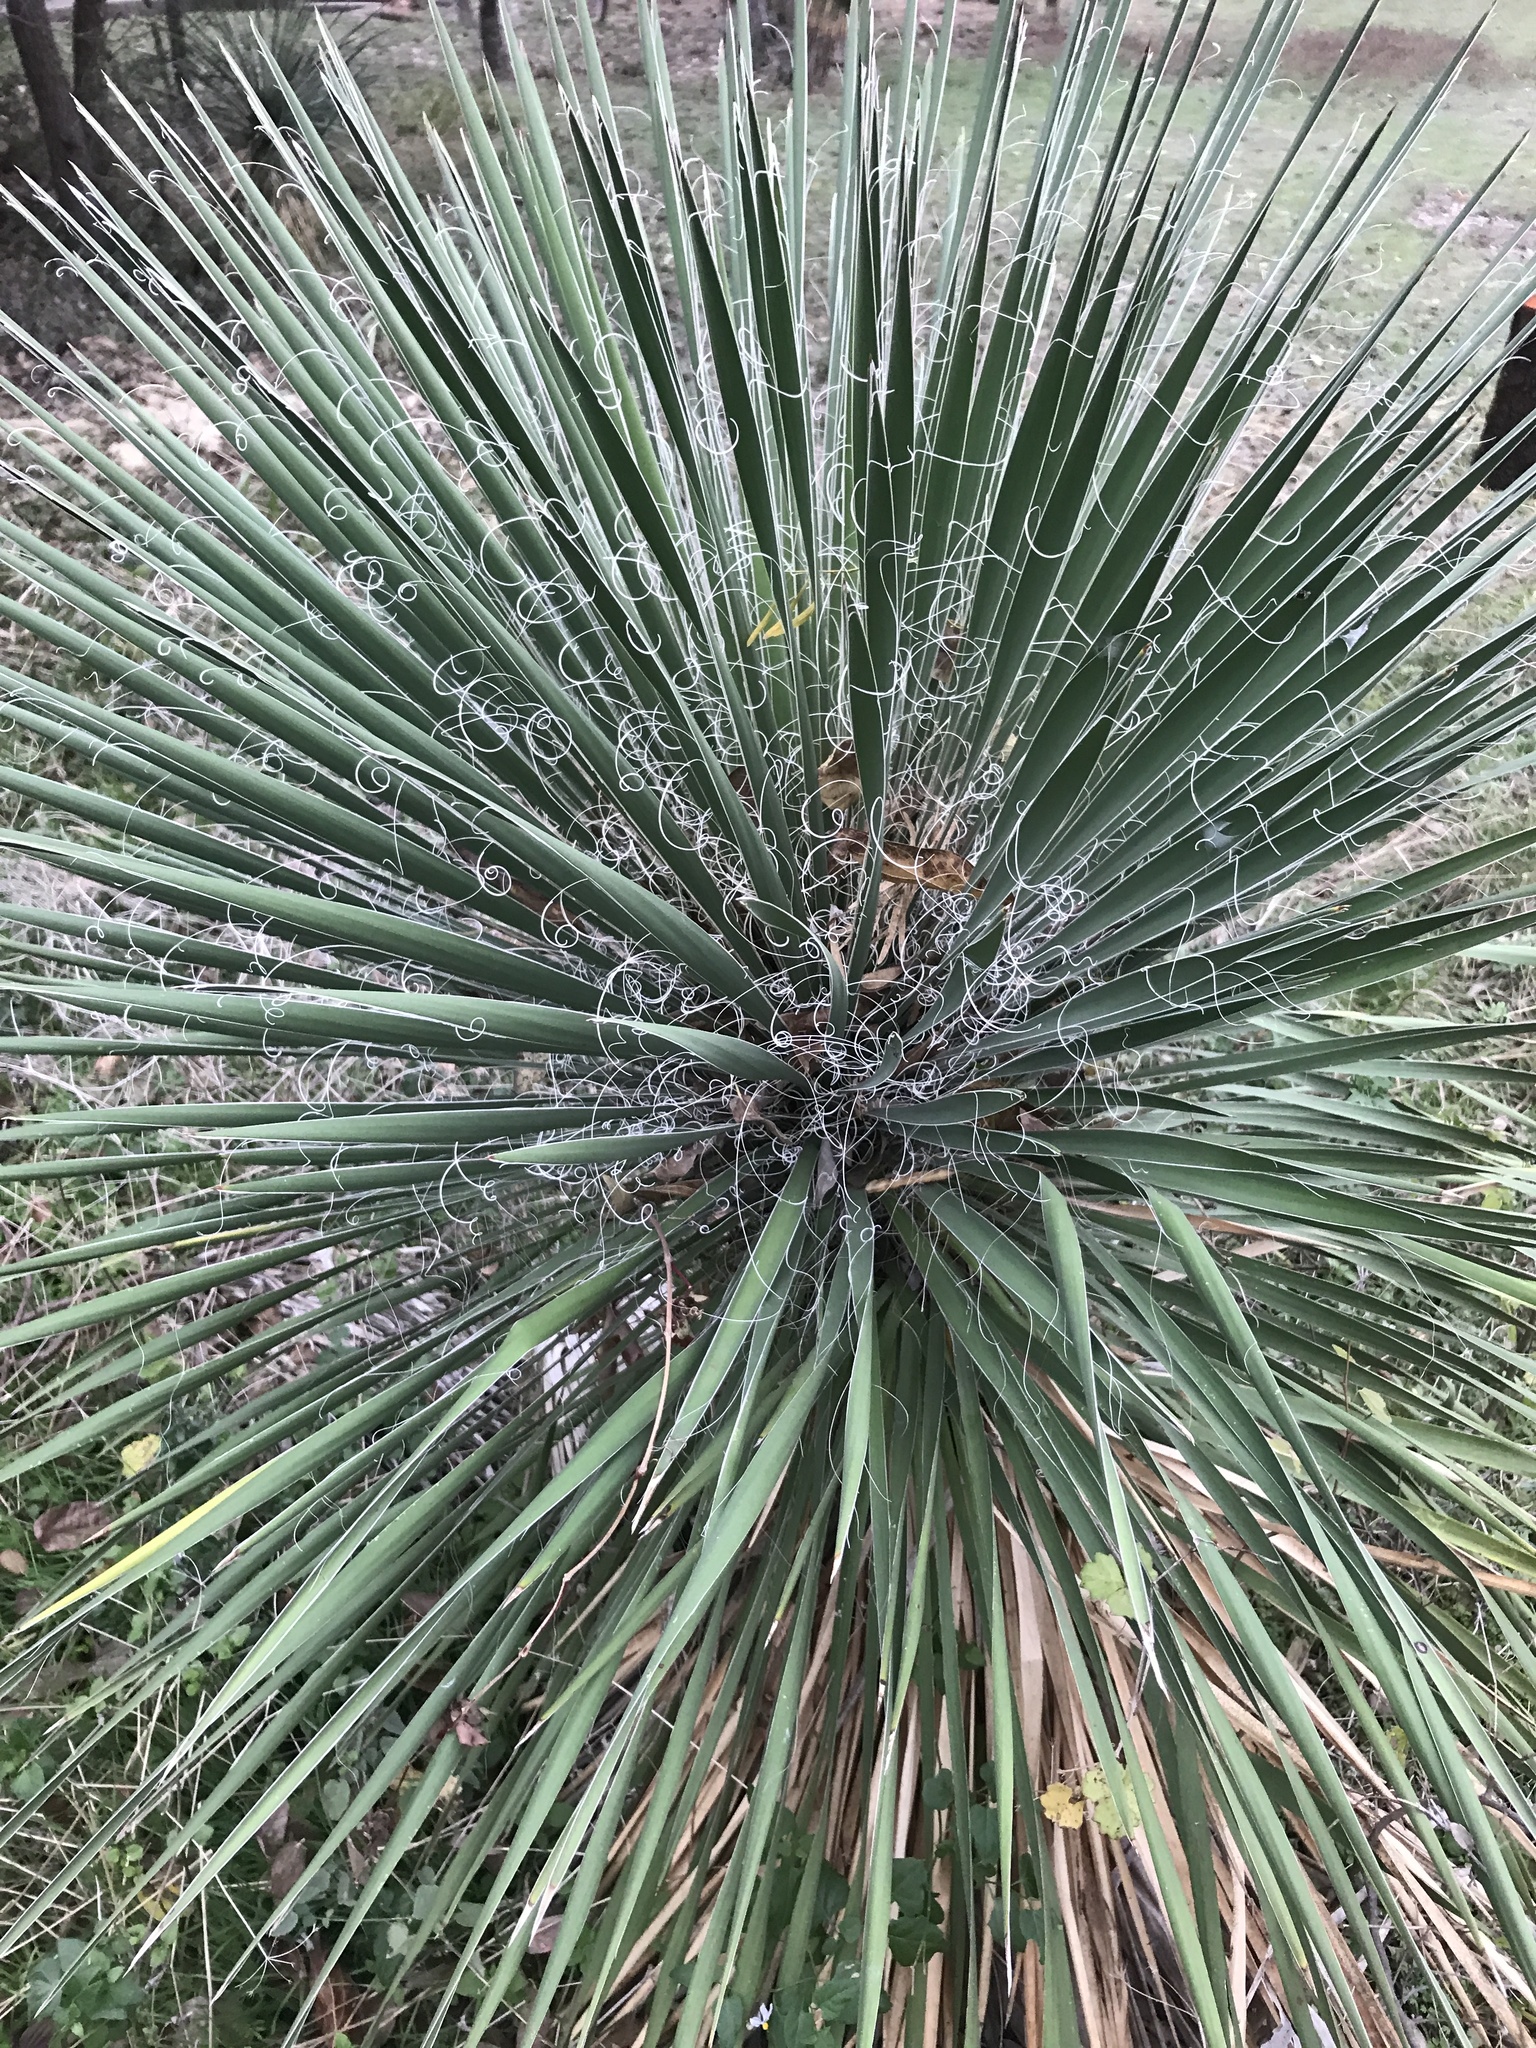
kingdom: Plantae
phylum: Tracheophyta
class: Liliopsida
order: Asparagales
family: Asparagaceae
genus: Yucca
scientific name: Yucca constricta
